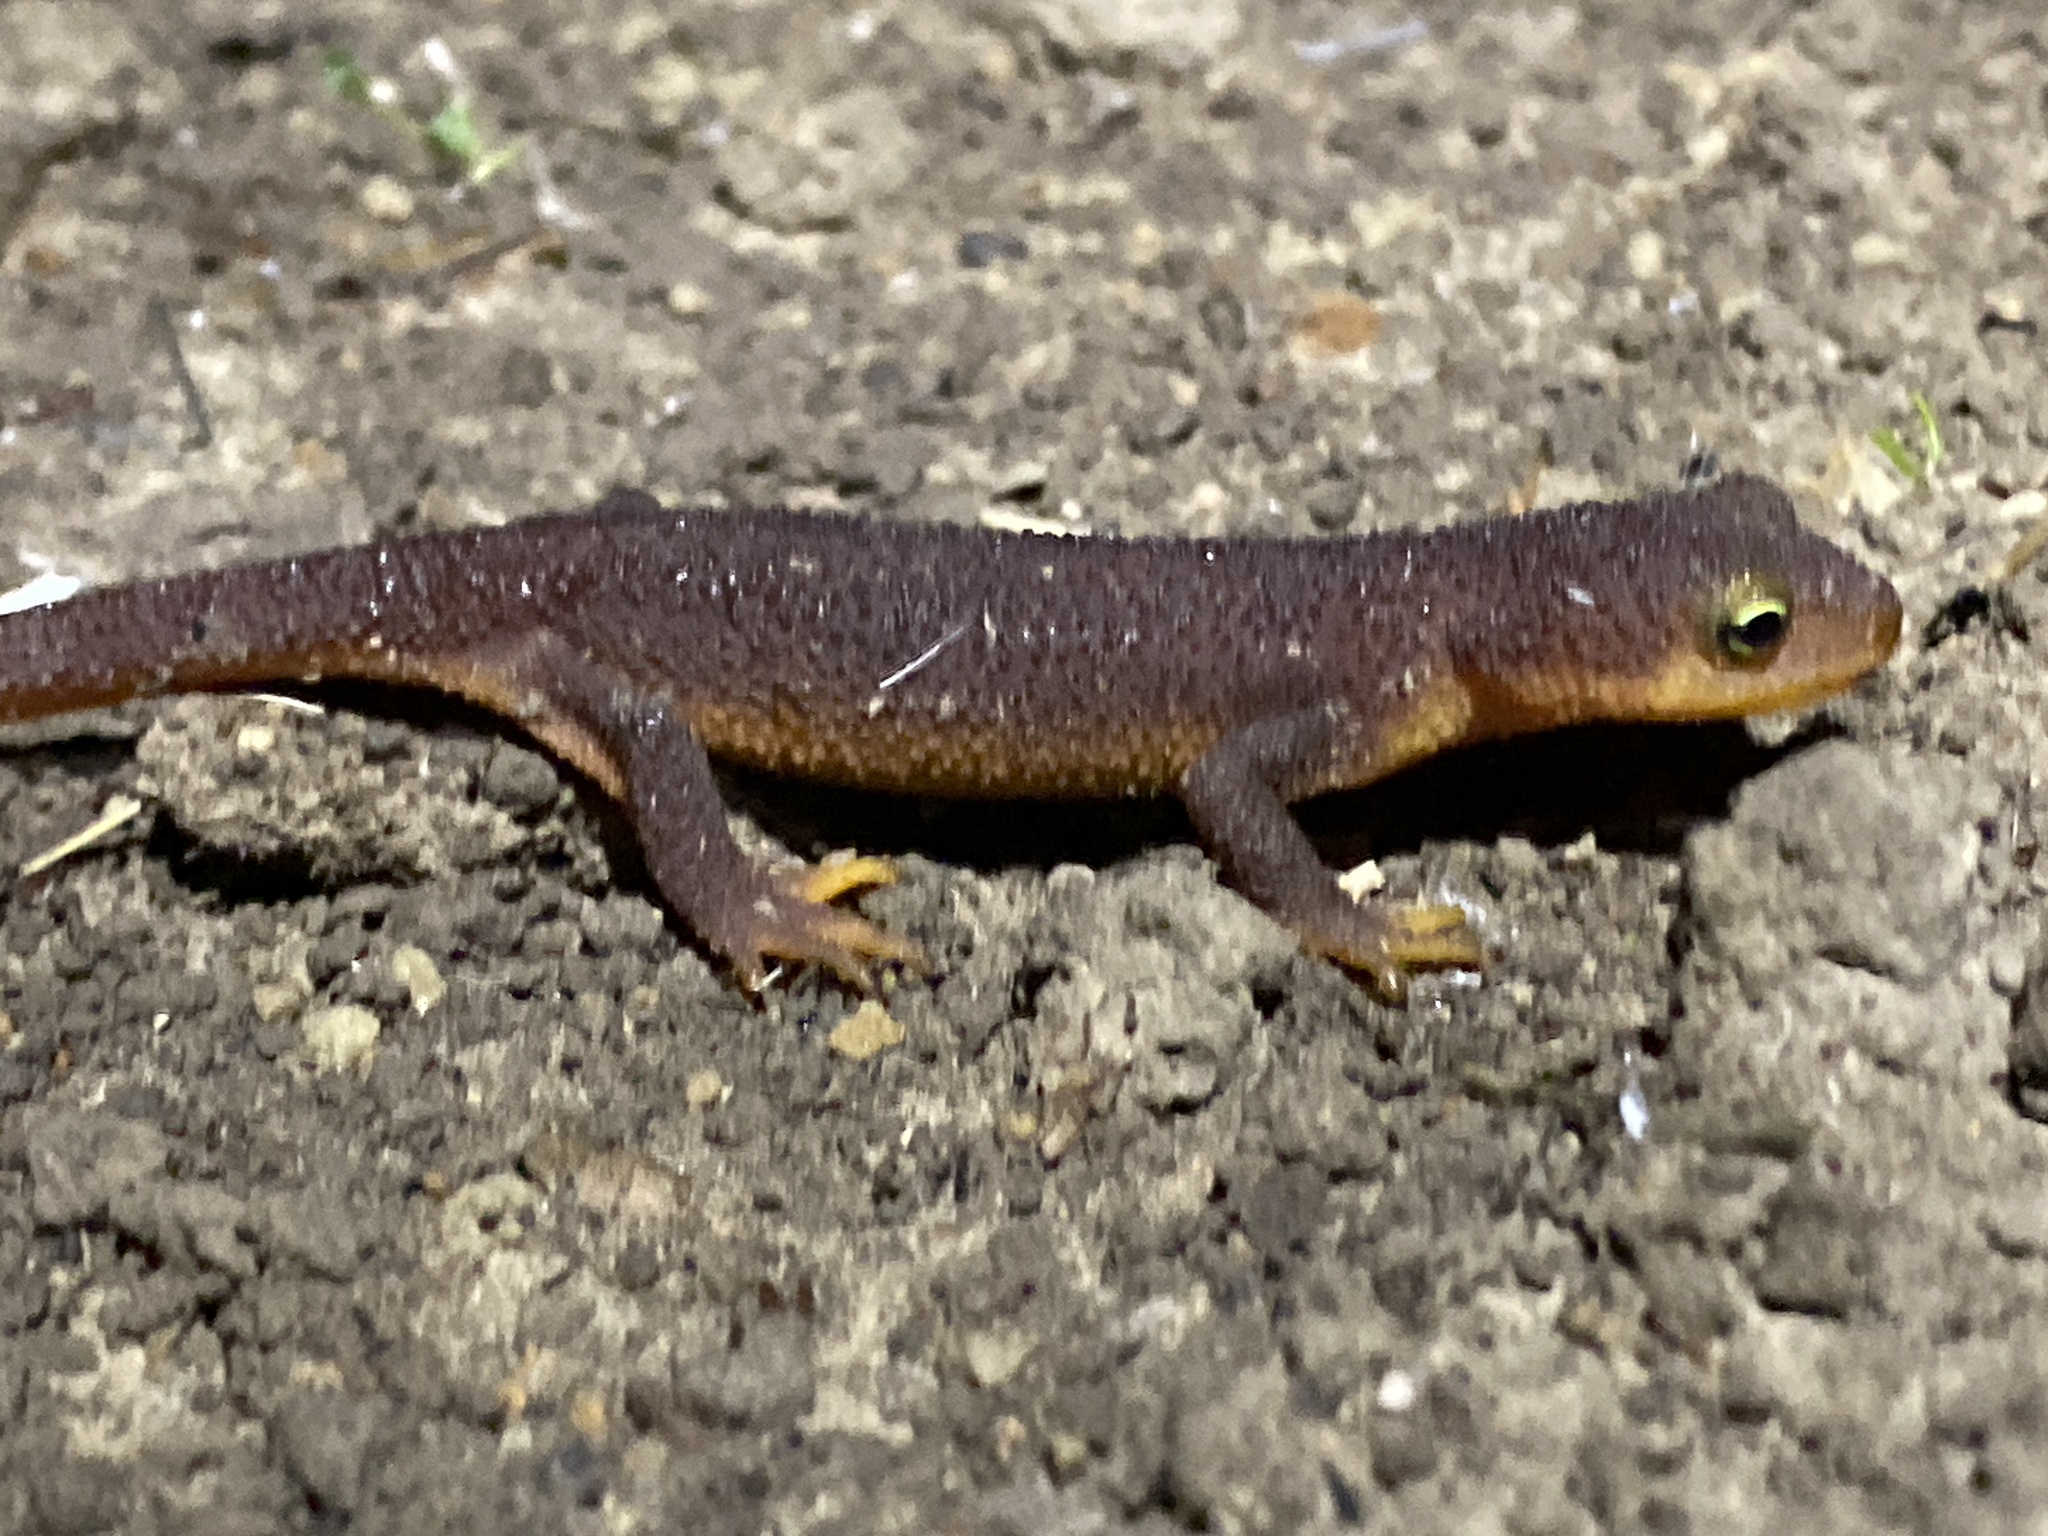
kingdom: Animalia
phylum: Chordata
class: Amphibia
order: Caudata
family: Salamandridae
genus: Taricha
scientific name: Taricha torosa
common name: California newt
